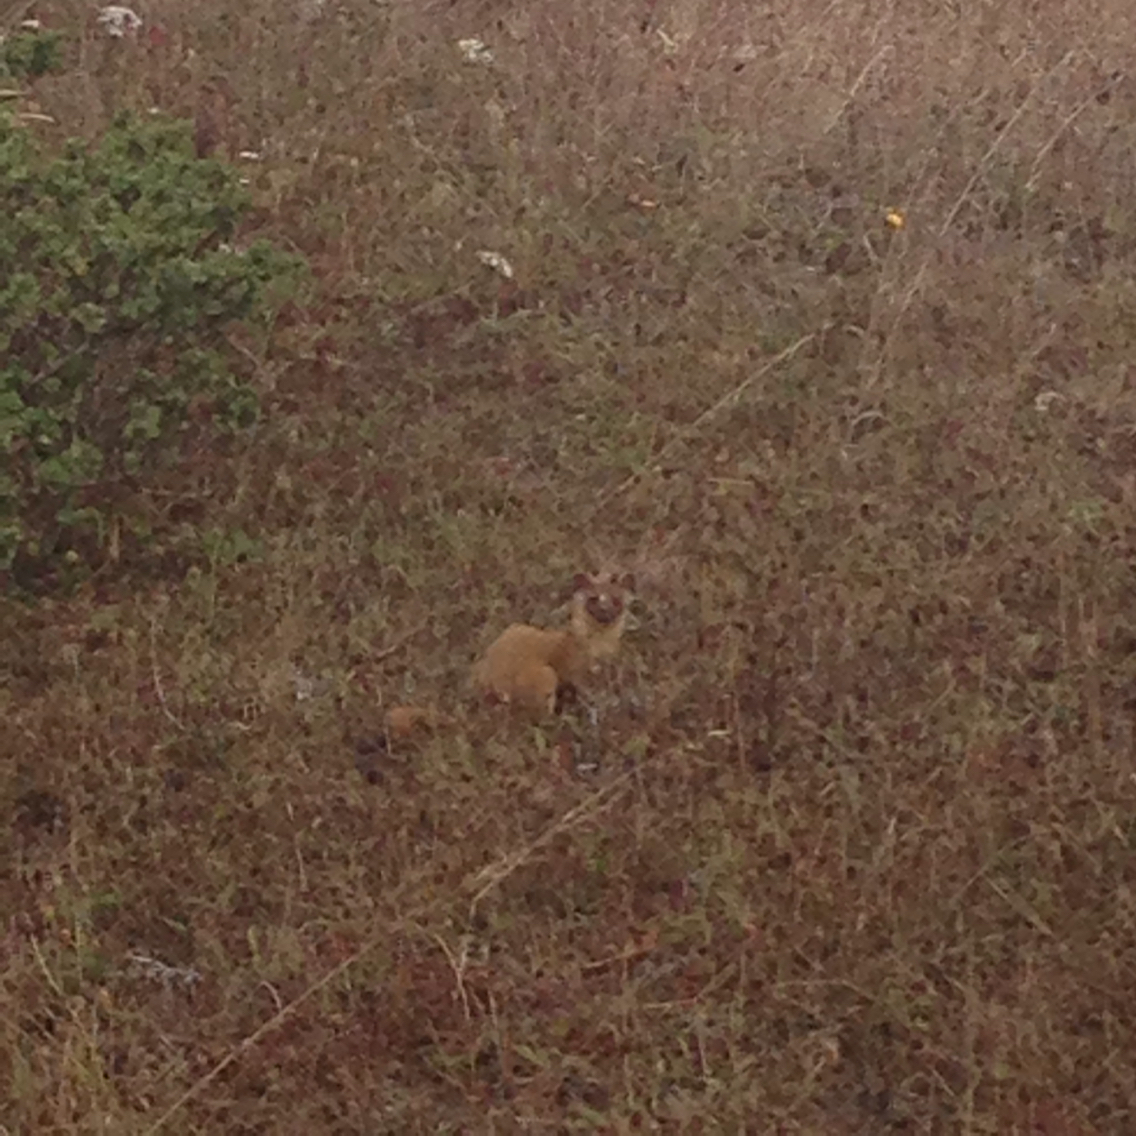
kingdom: Animalia
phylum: Chordata
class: Mammalia
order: Carnivora
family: Mustelidae
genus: Mustela
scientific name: Mustela
